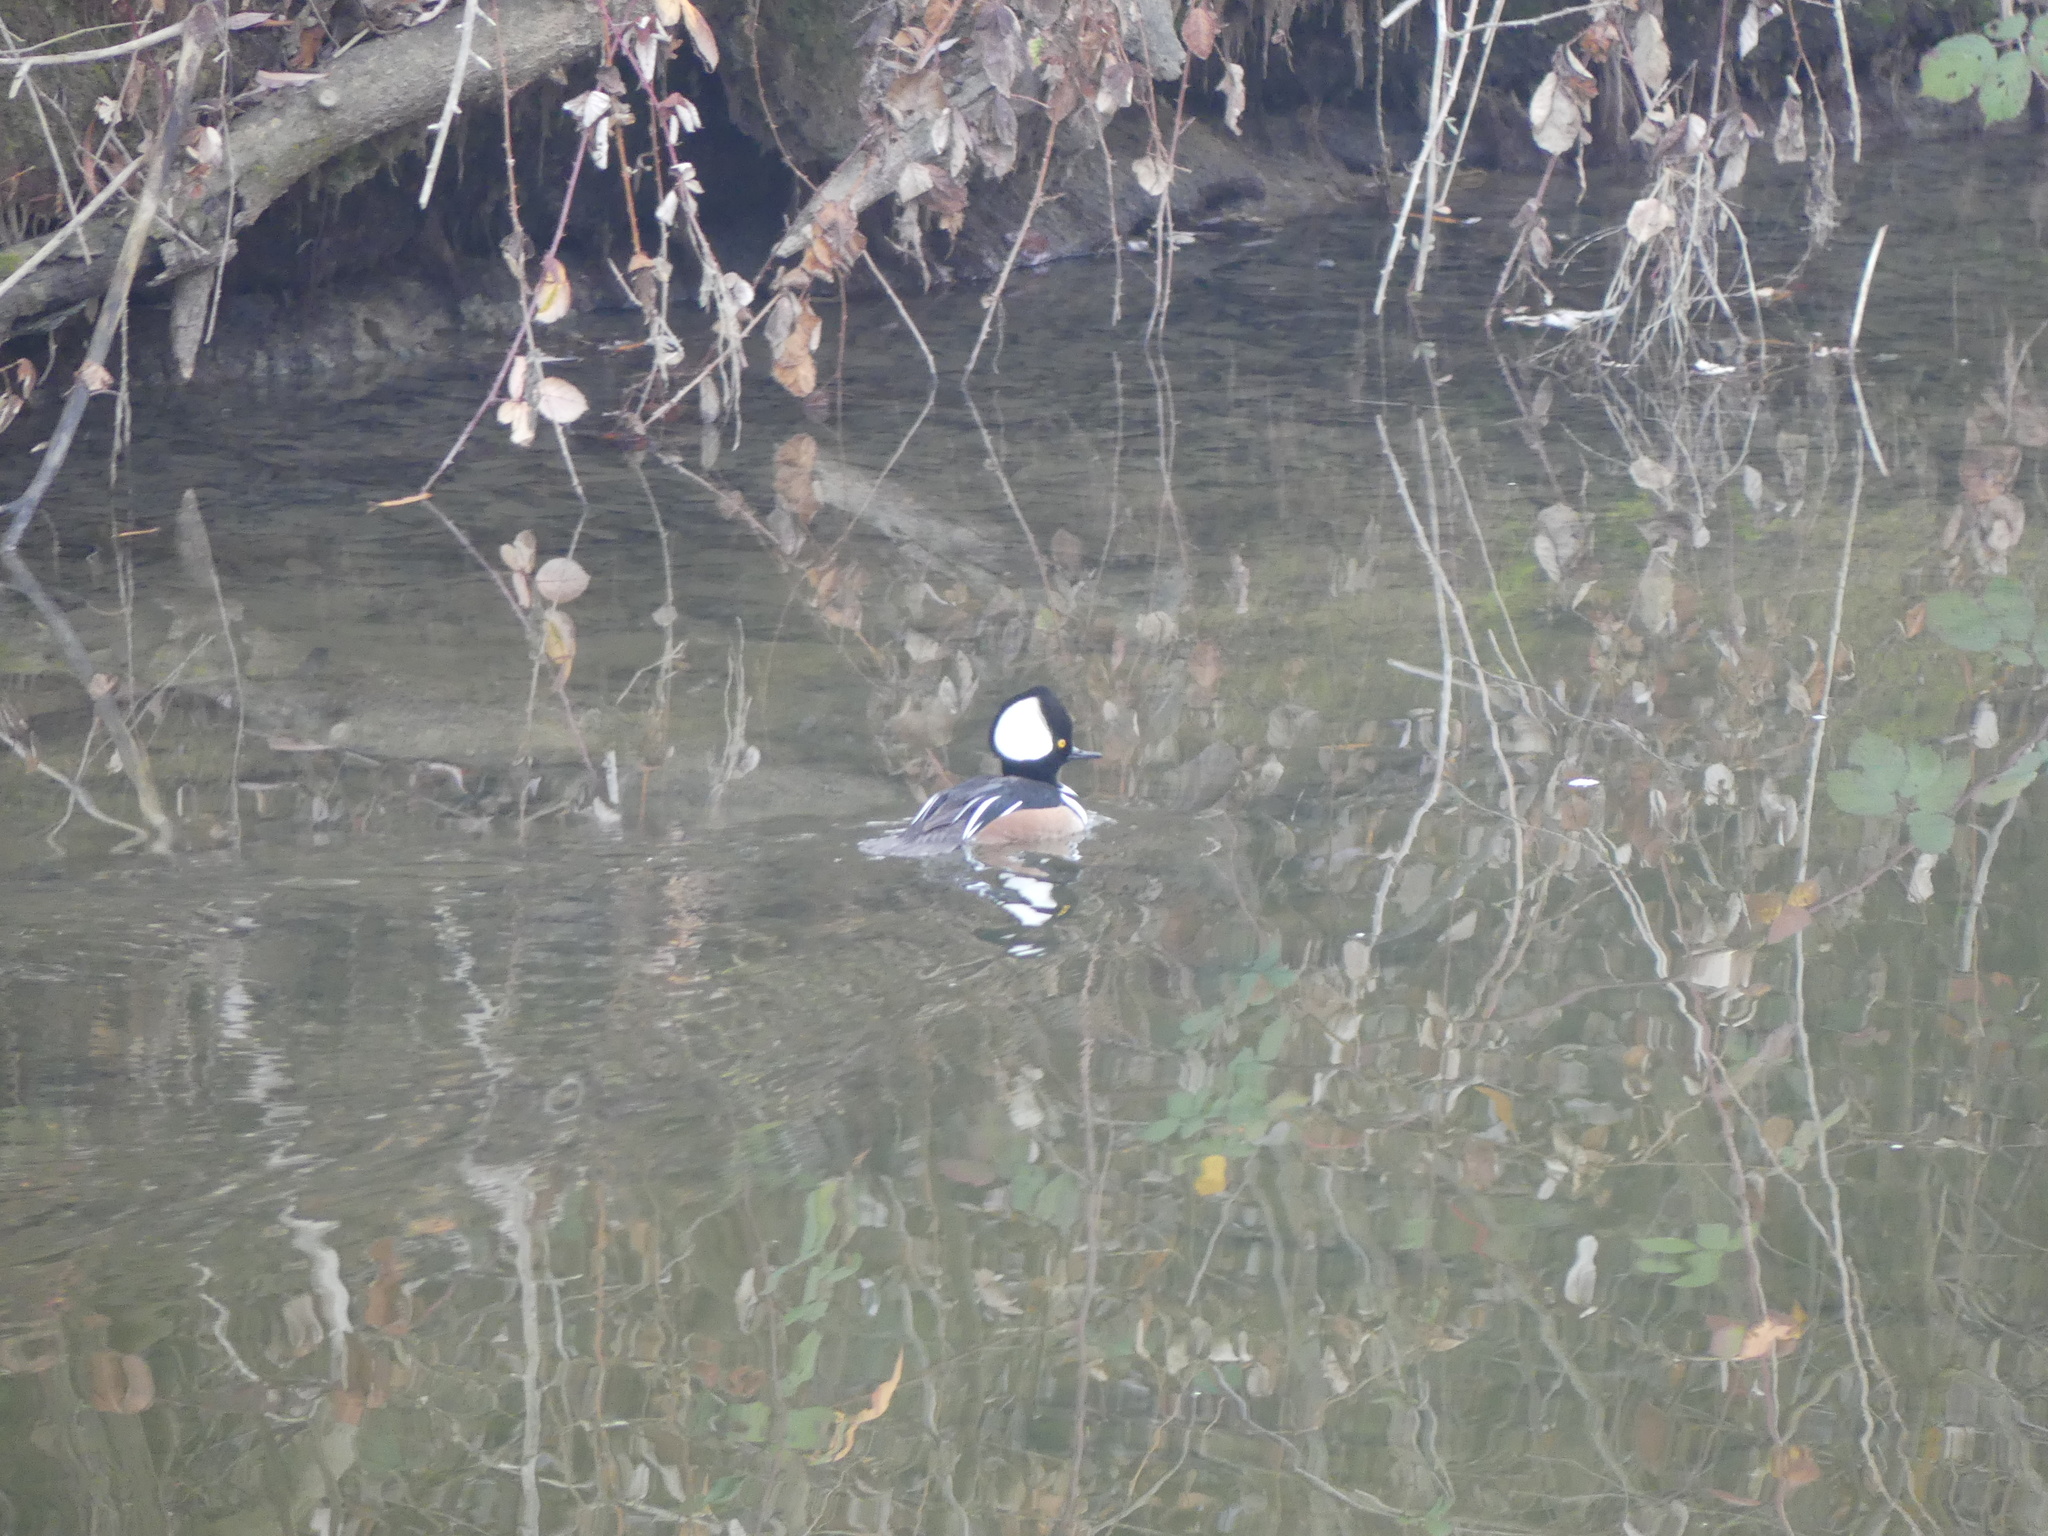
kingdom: Animalia
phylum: Chordata
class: Aves
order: Anseriformes
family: Anatidae
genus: Lophodytes
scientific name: Lophodytes cucullatus
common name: Hooded merganser
